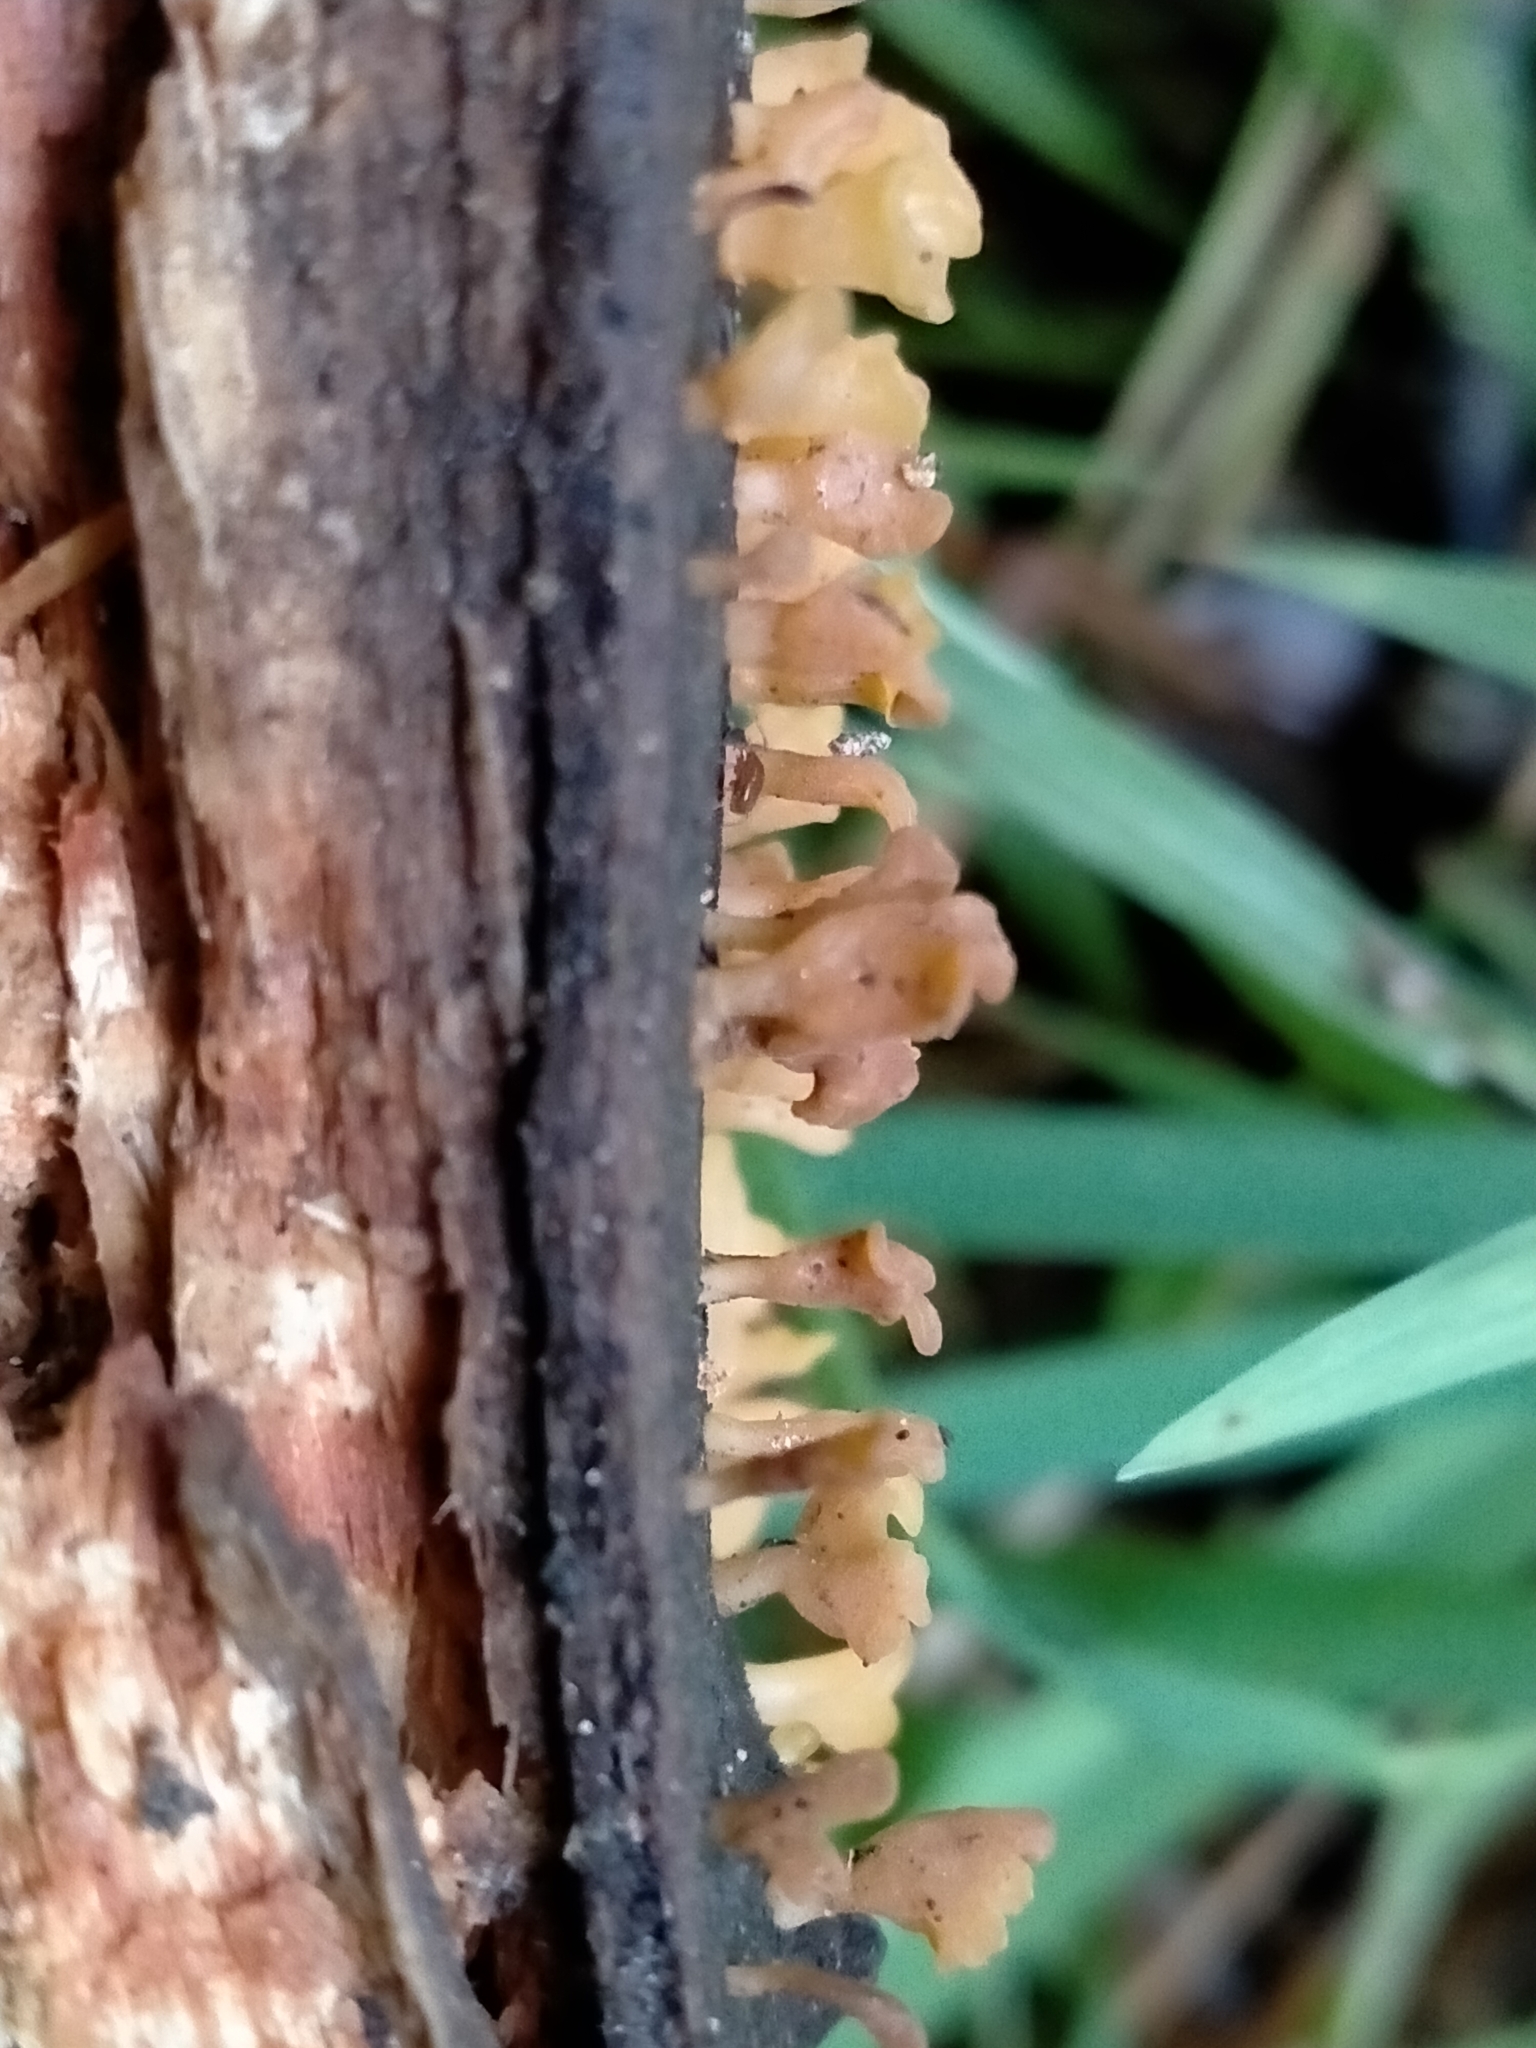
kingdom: Fungi
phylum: Basidiomycota
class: Dacrymycetes
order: Dacrymycetales
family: Dacrymycetaceae
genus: Calocera
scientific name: Calocera guepinioides
